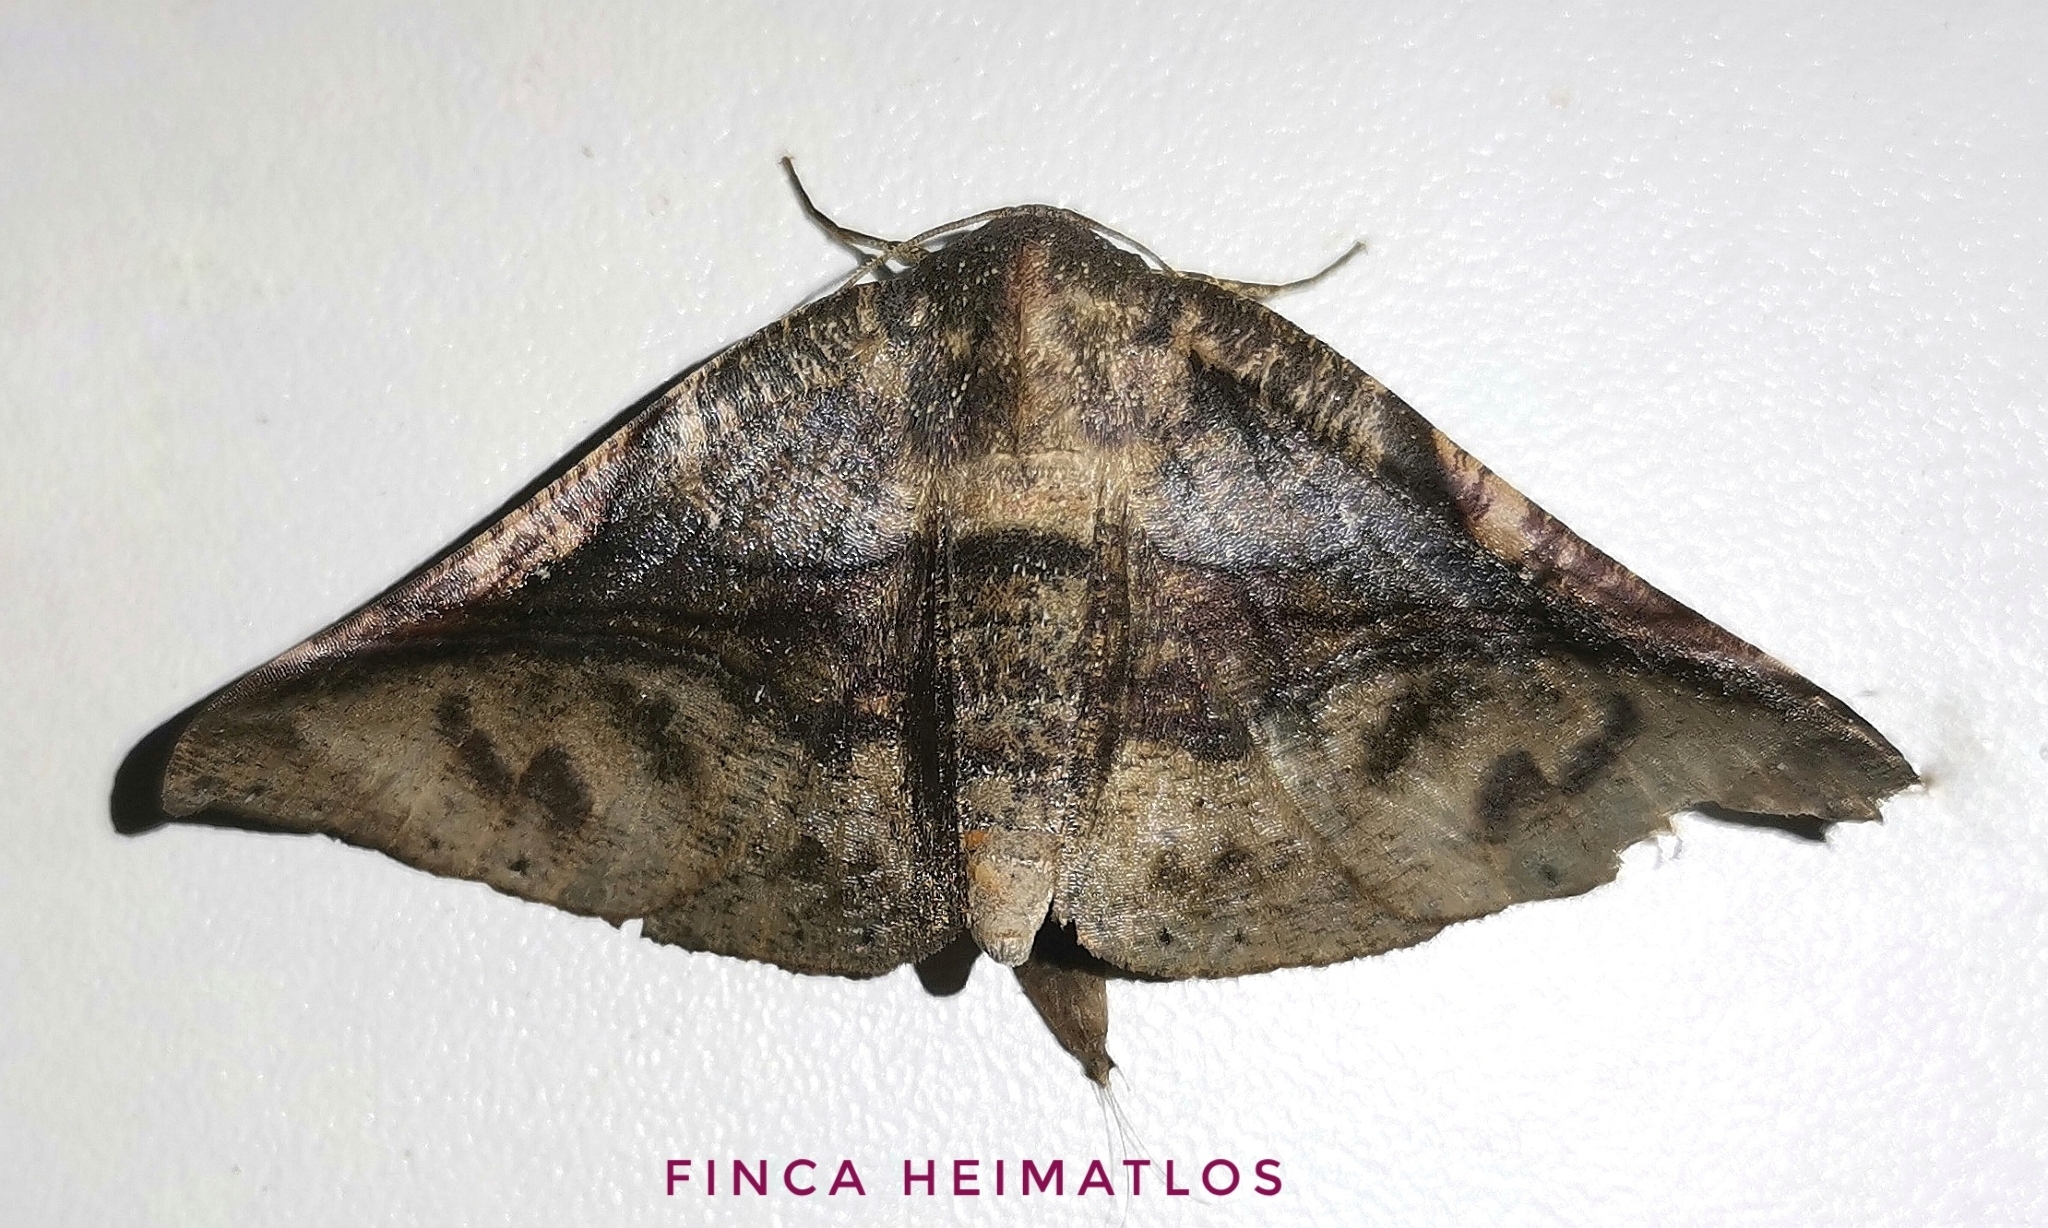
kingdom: Animalia
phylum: Arthropoda
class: Insecta
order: Lepidoptera
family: Geometridae
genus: Pero
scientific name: Pero exquisita
